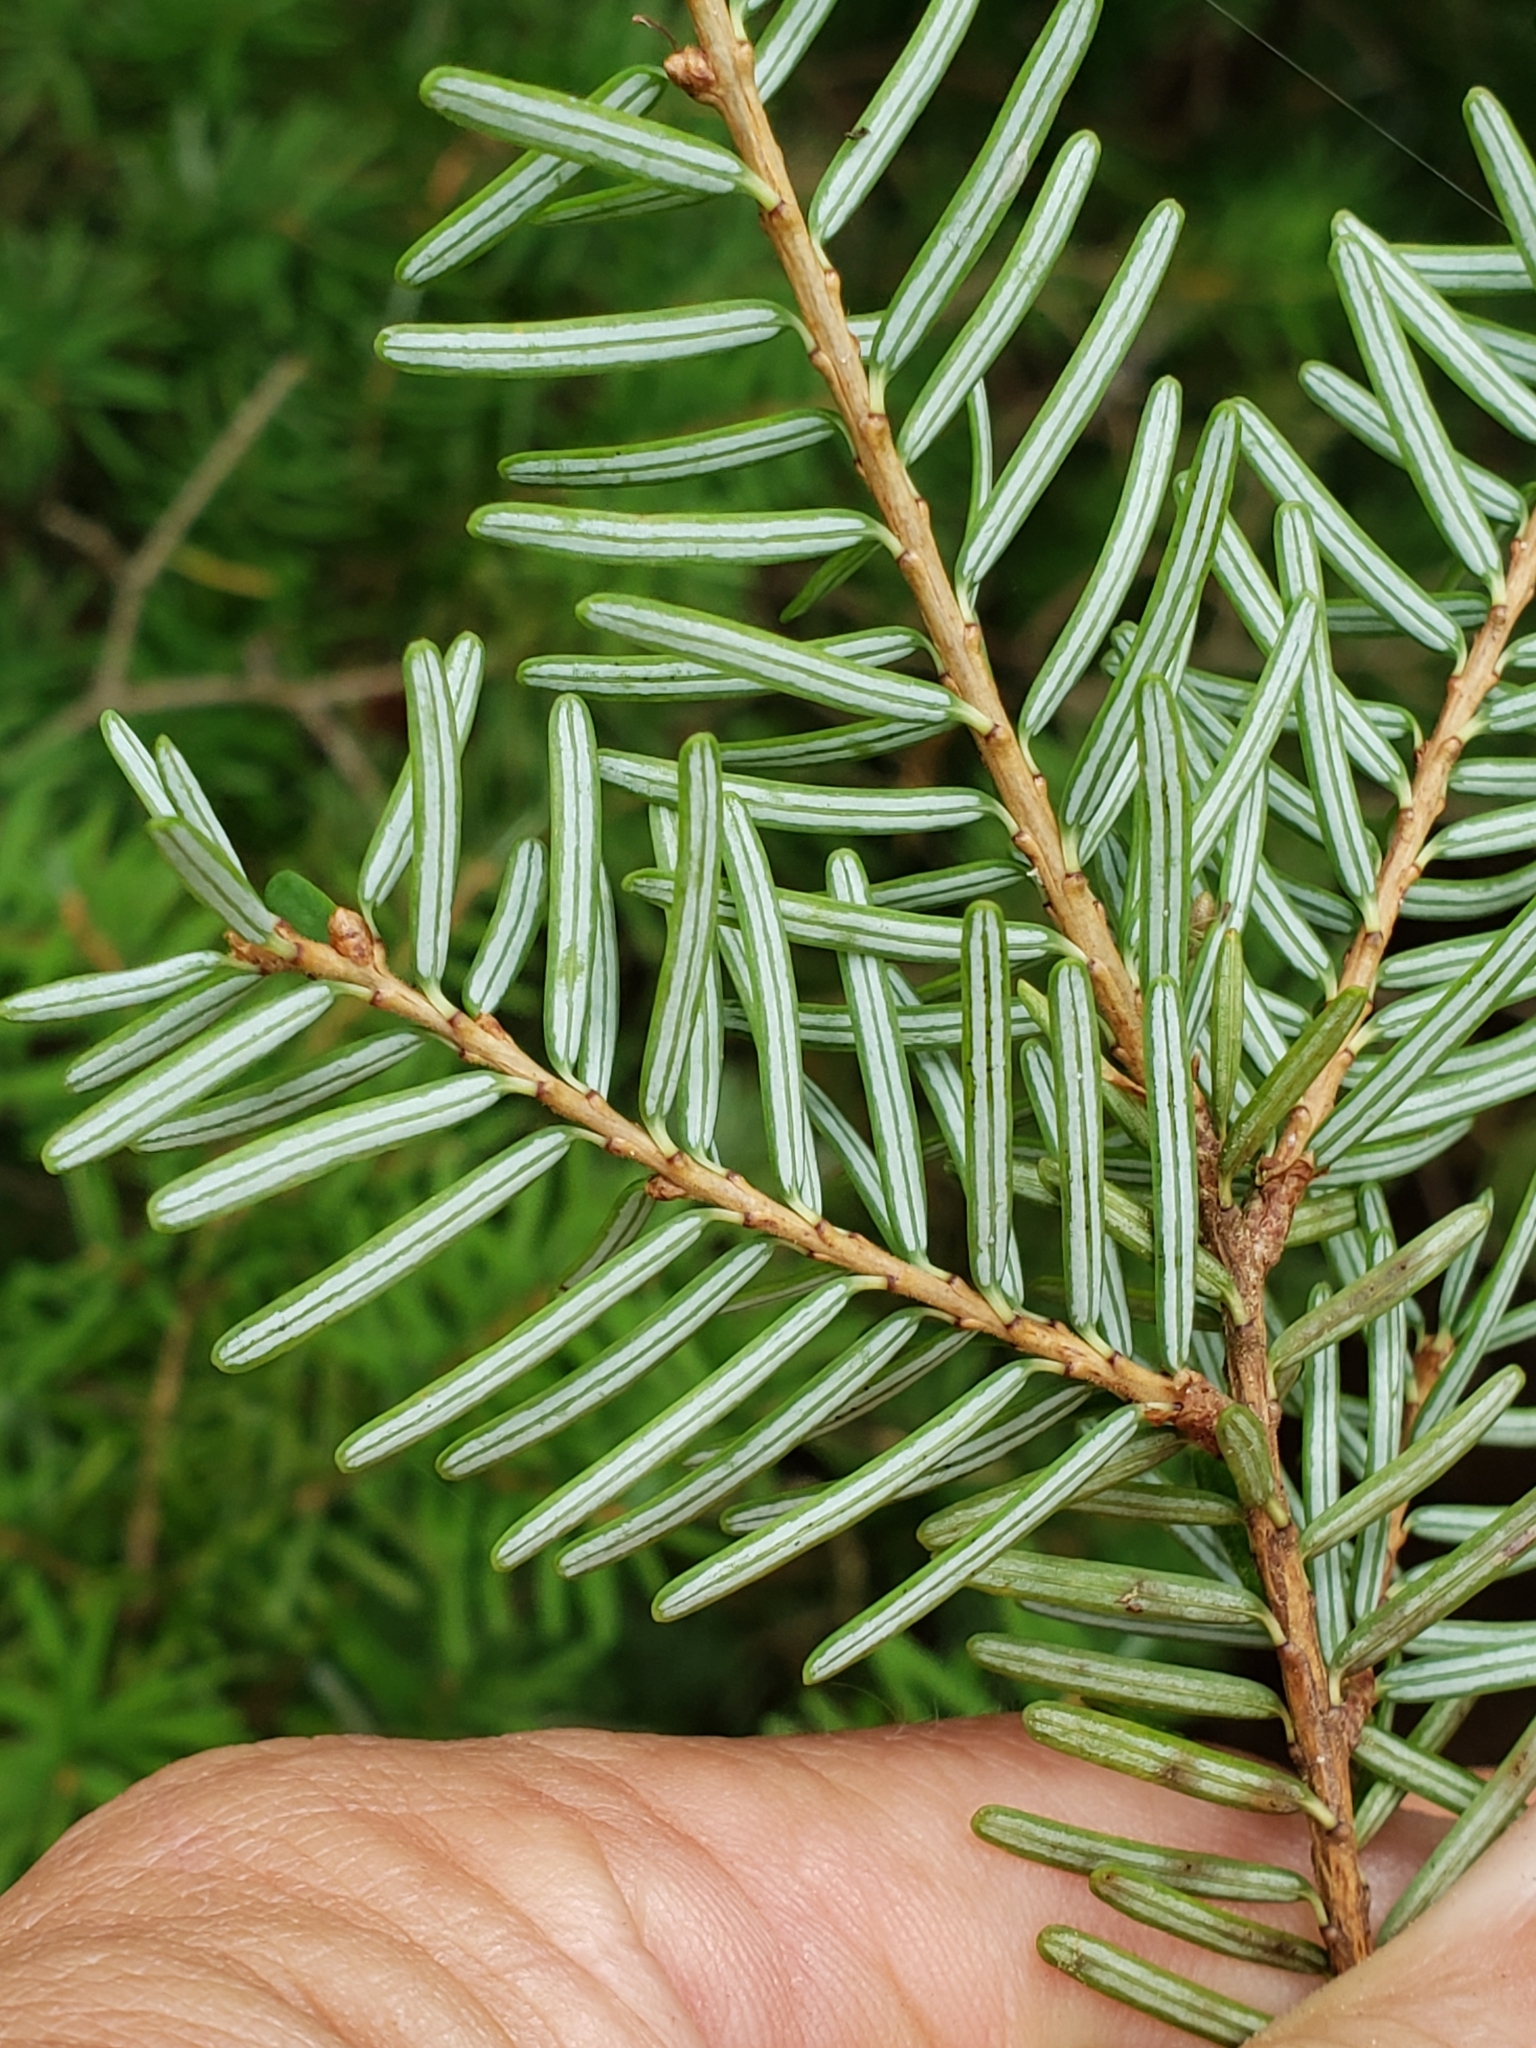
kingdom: Plantae
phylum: Tracheophyta
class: Pinopsida
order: Pinales
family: Pinaceae
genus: Tsuga
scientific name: Tsuga caroliniana
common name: Carolina hemlock
